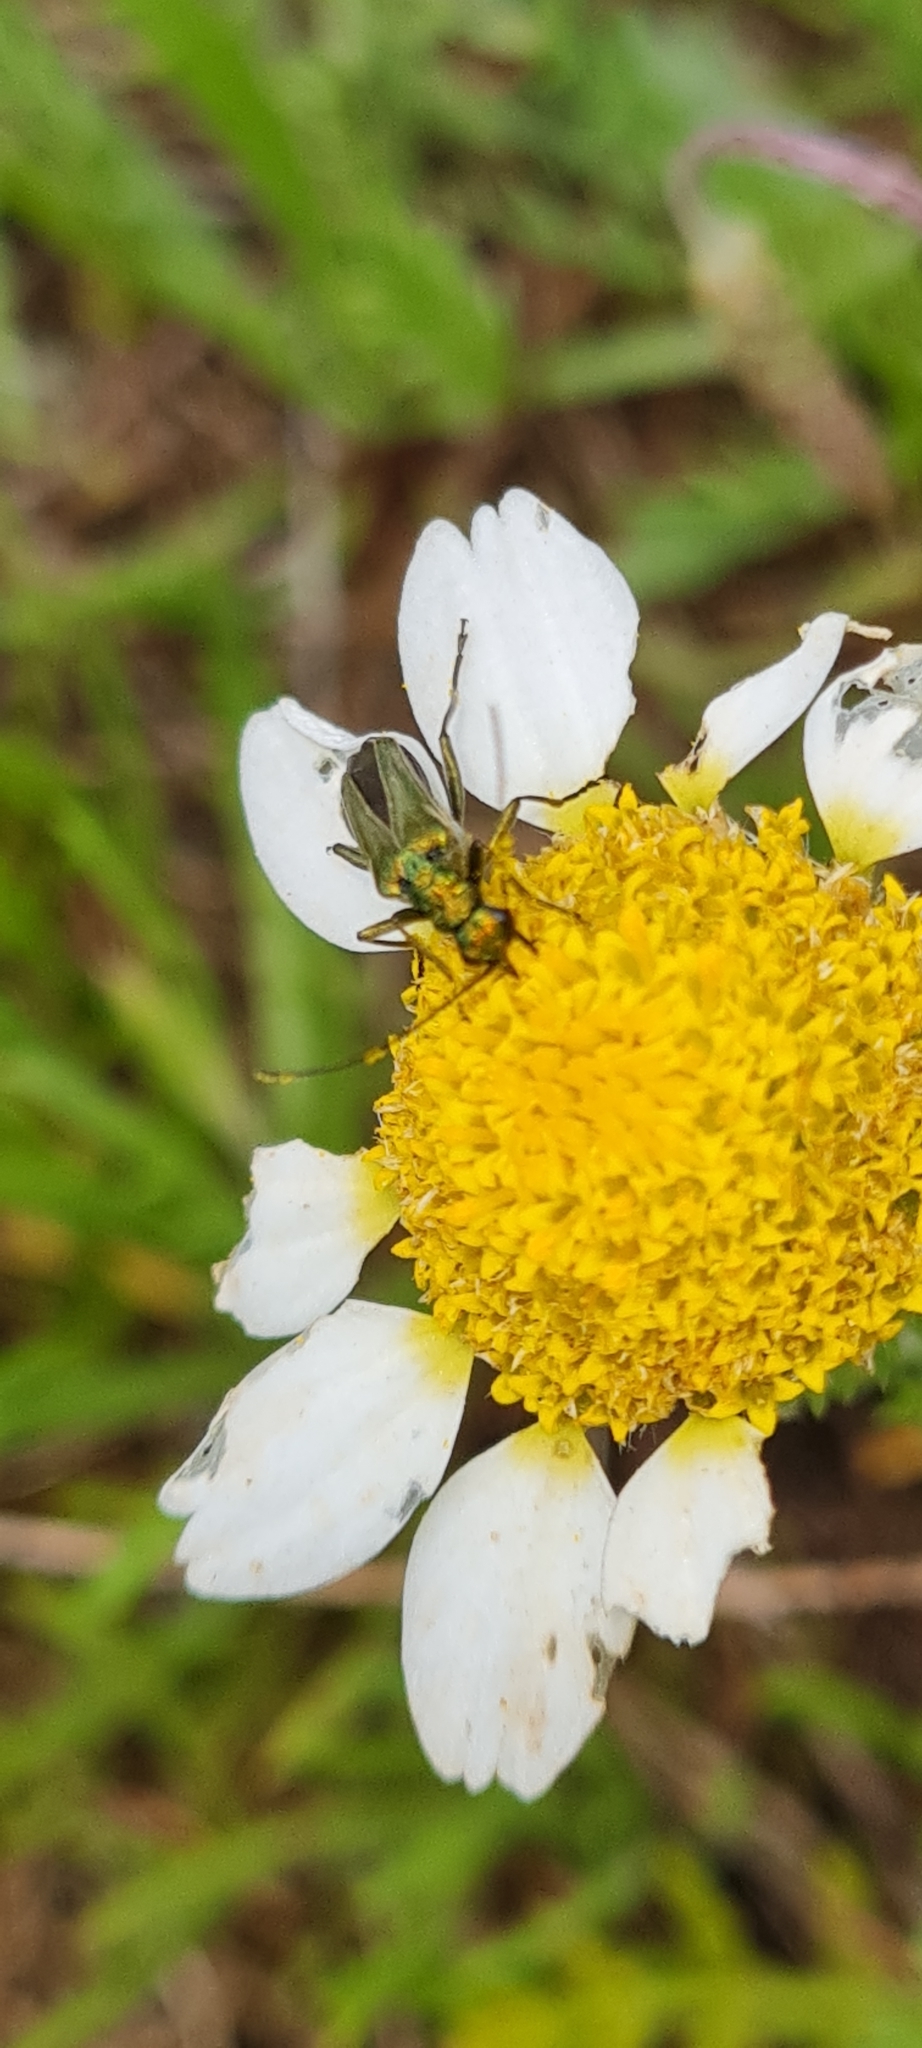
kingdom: Animalia
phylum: Arthropoda
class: Insecta
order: Coleoptera
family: Oedemeridae
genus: Oedemera
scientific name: Oedemera nobilis
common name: Swollen-thighed beetle
